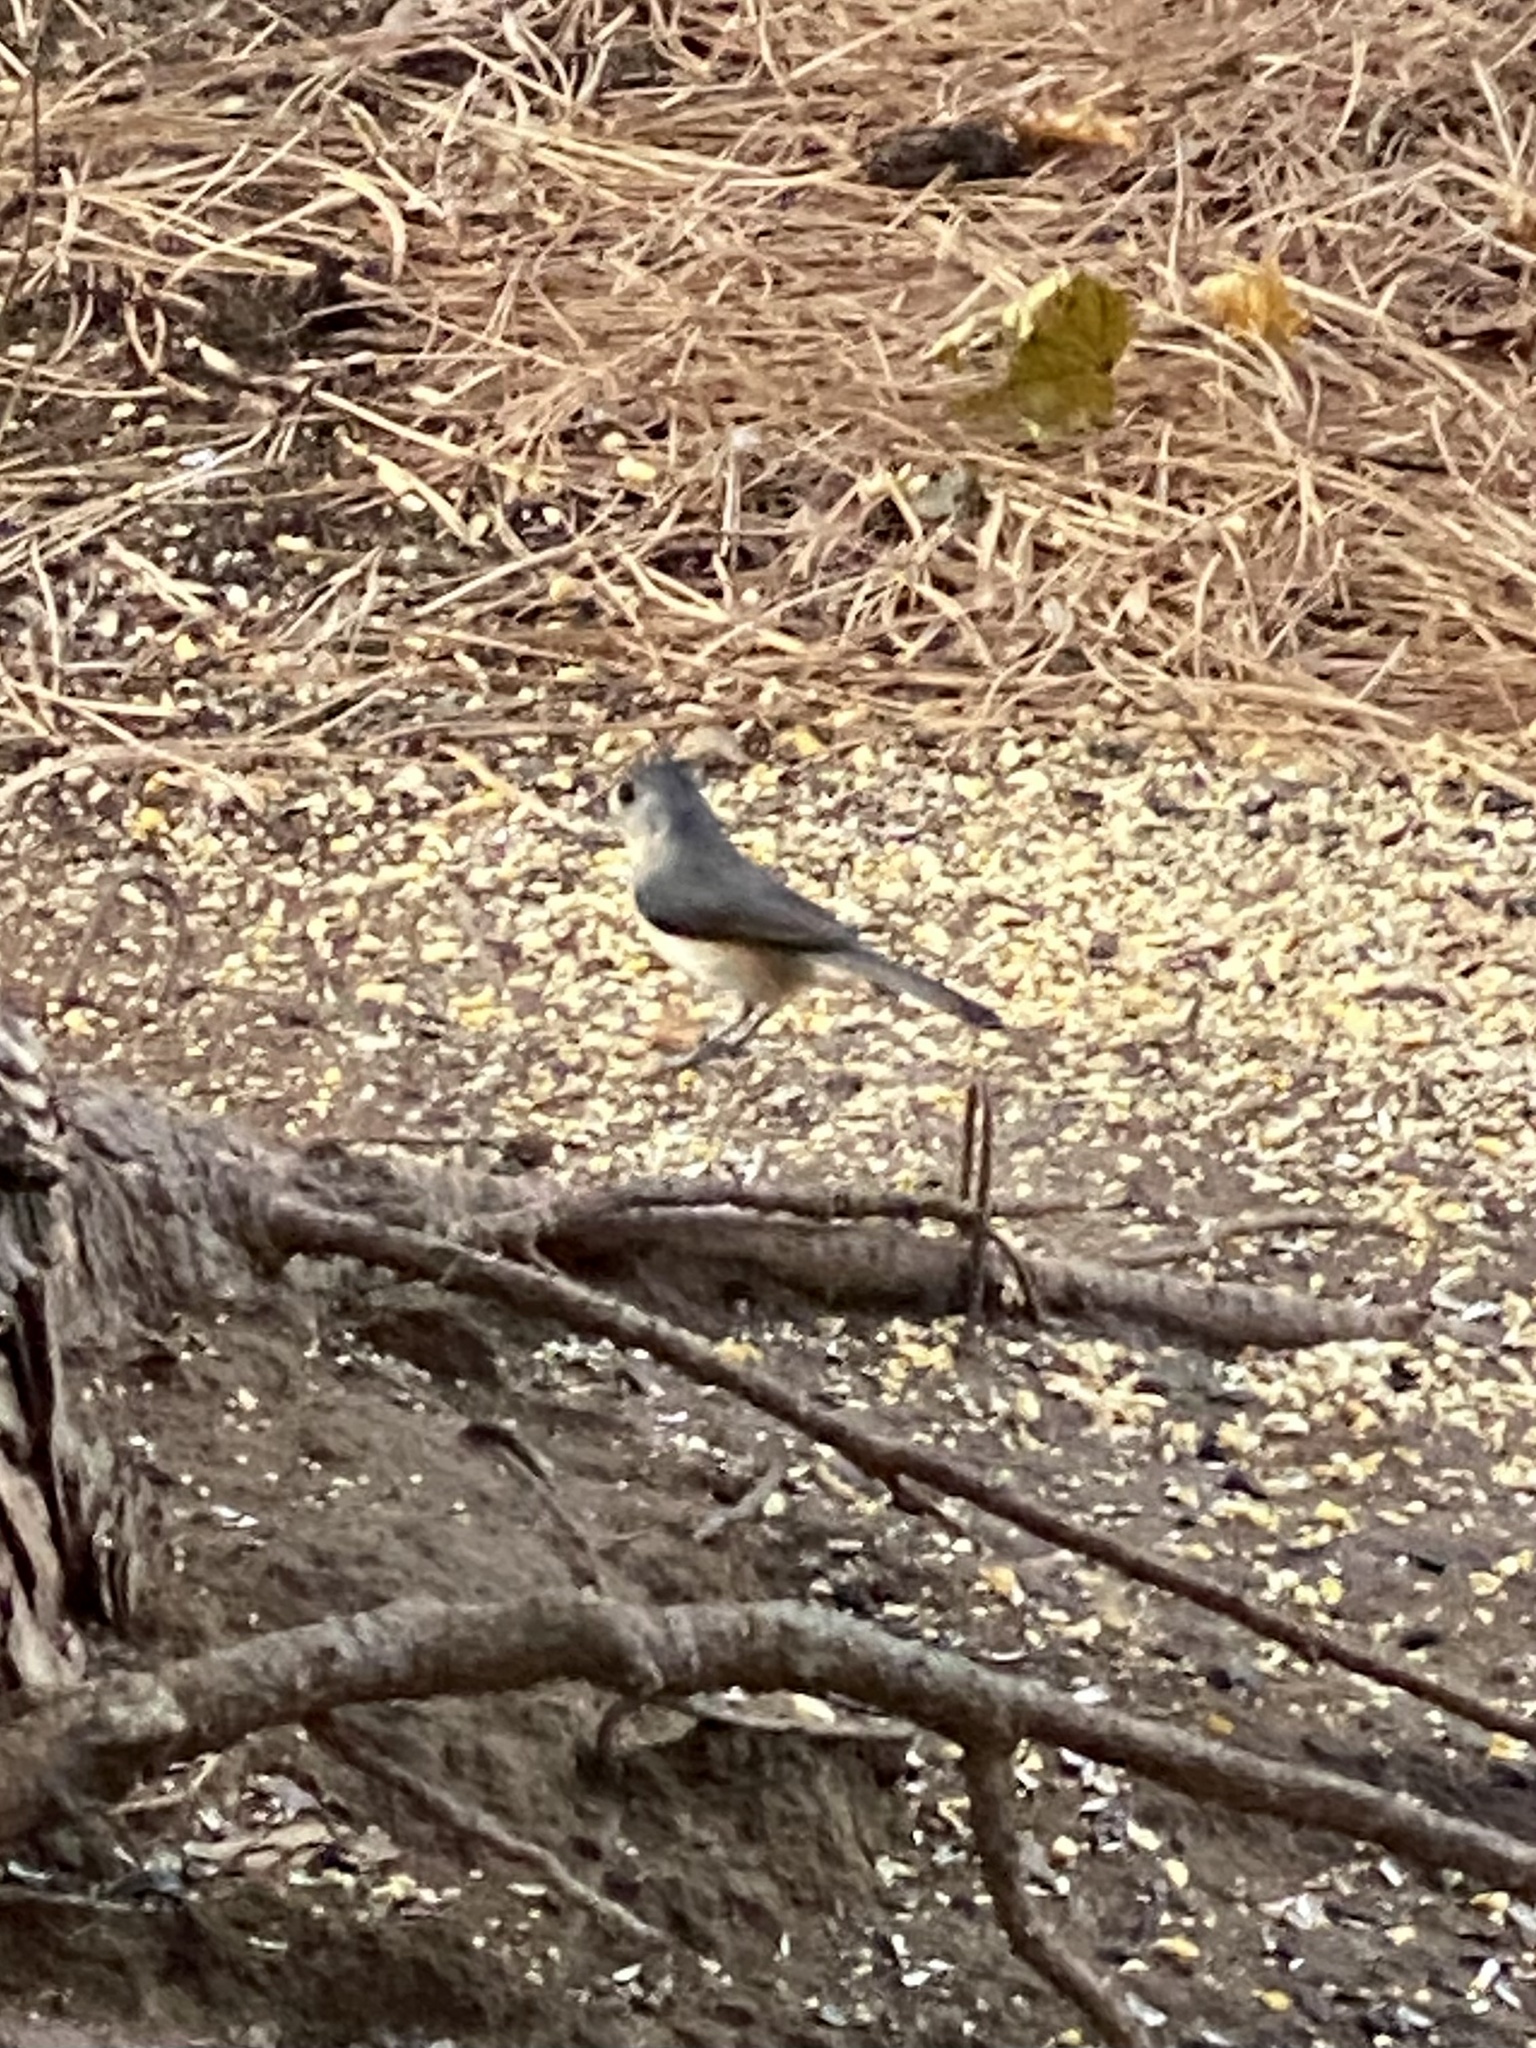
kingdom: Animalia
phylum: Chordata
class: Aves
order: Passeriformes
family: Paridae
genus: Baeolophus
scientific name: Baeolophus bicolor
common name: Tufted titmouse
